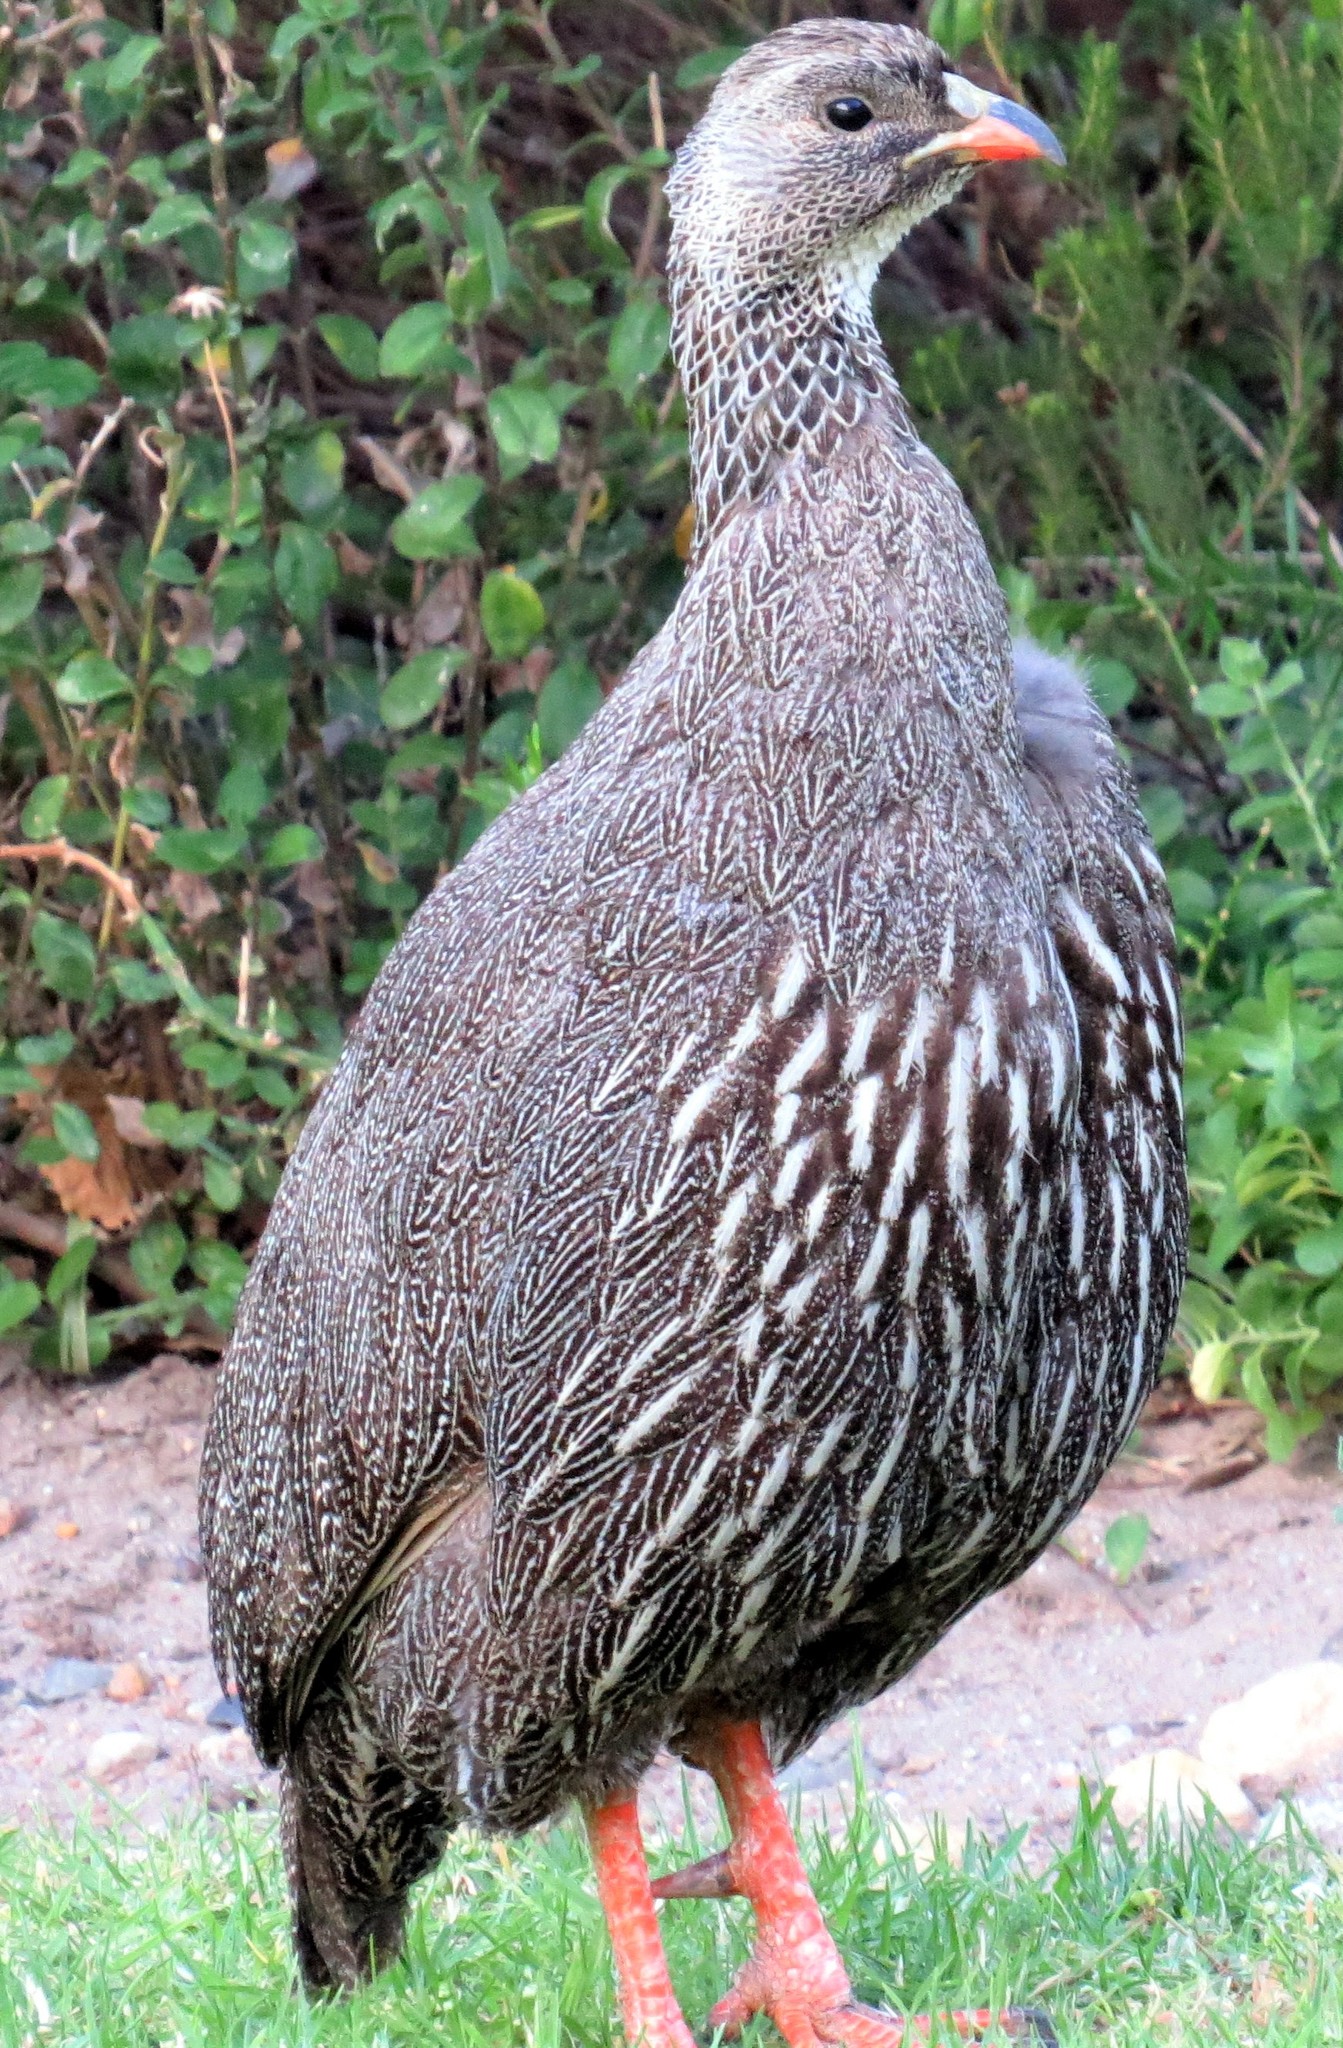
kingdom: Animalia
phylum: Chordata
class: Aves
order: Galliformes
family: Phasianidae
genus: Pternistis
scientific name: Pternistis capensis
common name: Cape spurfowl
